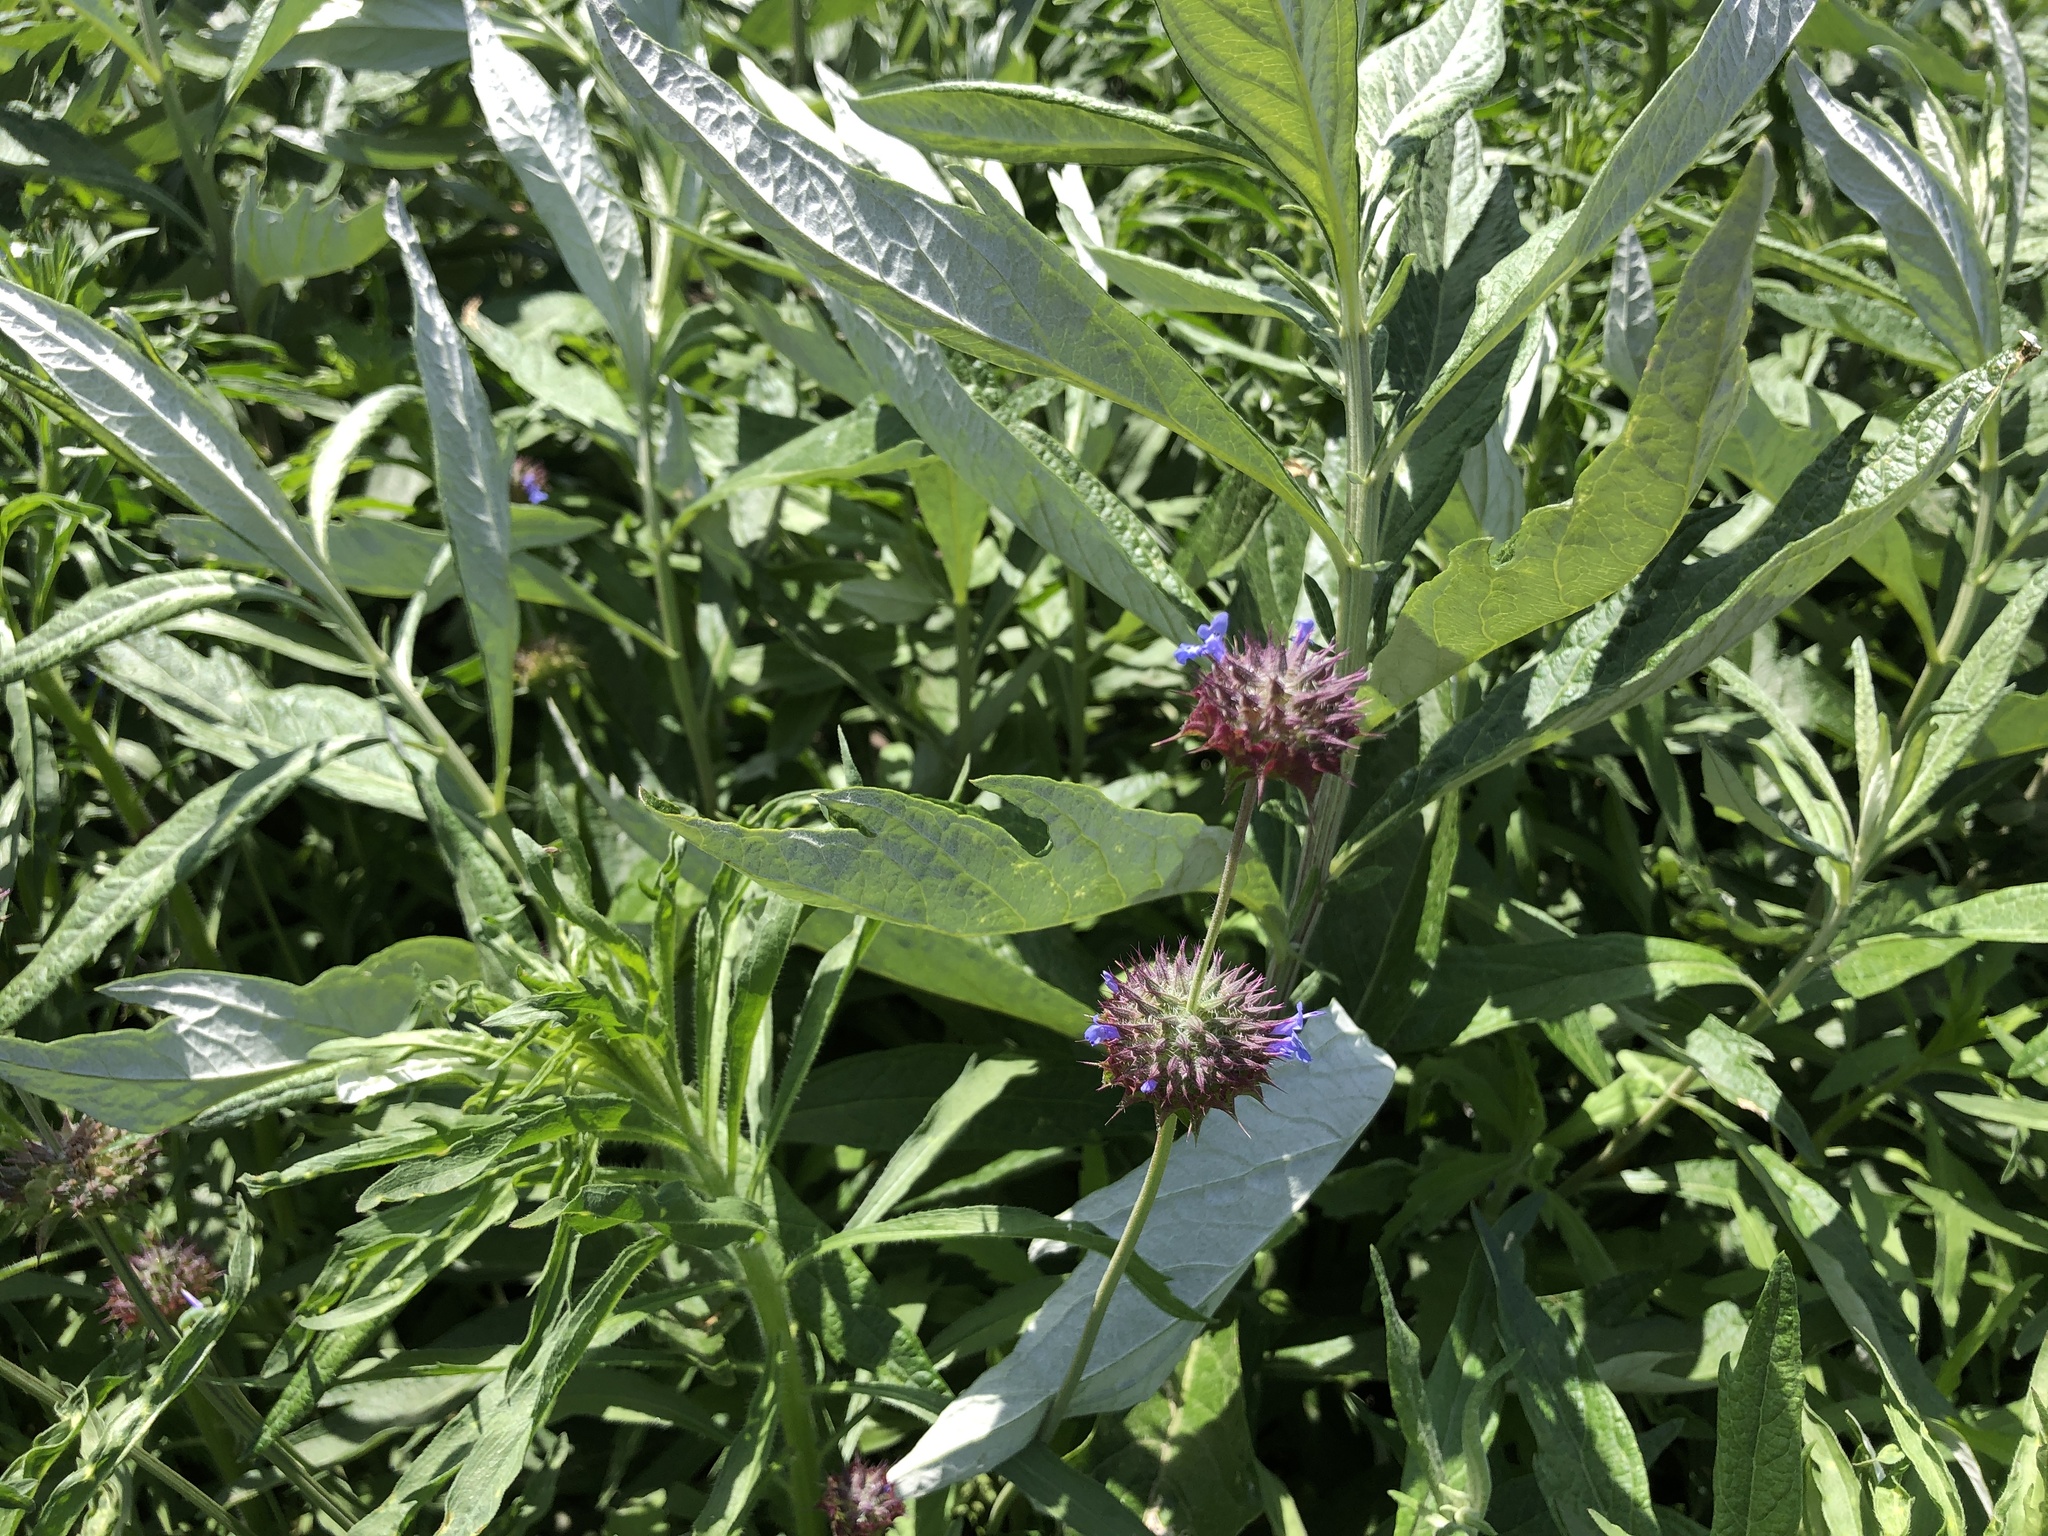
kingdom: Plantae
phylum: Tracheophyta
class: Magnoliopsida
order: Lamiales
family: Lamiaceae
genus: Salvia
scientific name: Salvia columbariae
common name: Chia
